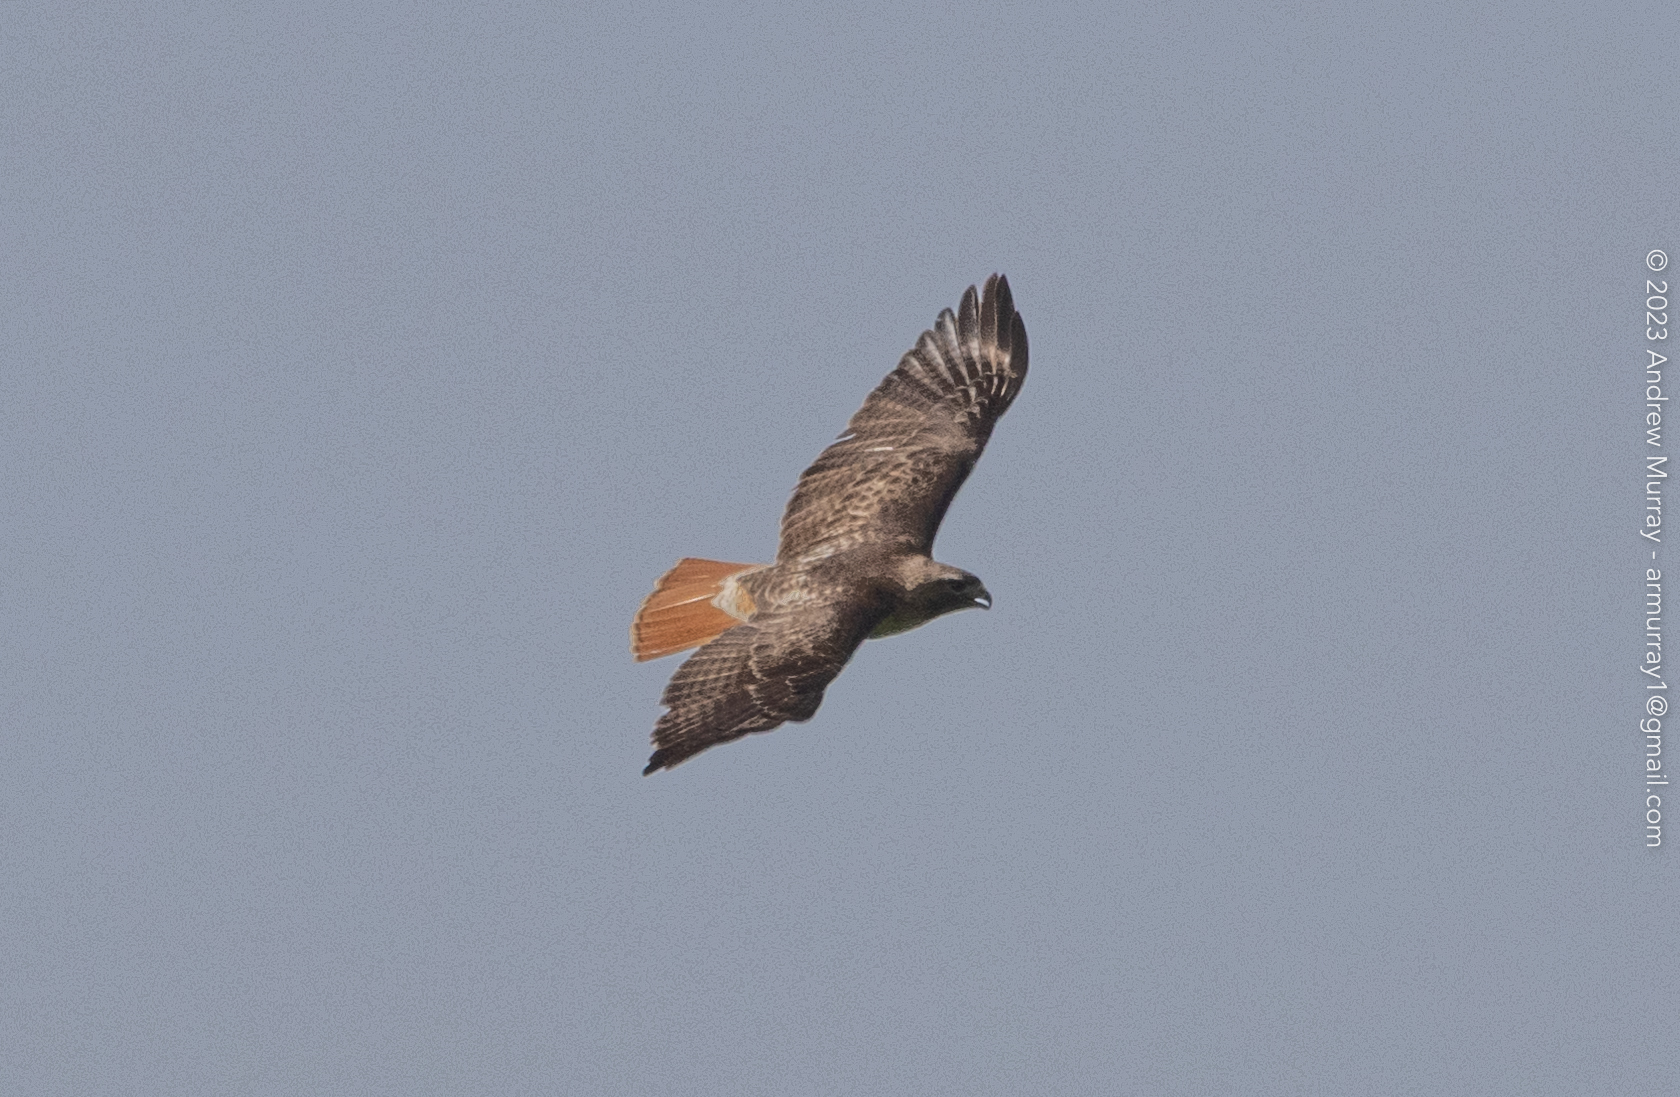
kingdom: Animalia
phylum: Chordata
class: Aves
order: Accipitriformes
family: Accipitridae
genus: Buteo
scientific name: Buteo jamaicensis
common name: Red-tailed hawk
